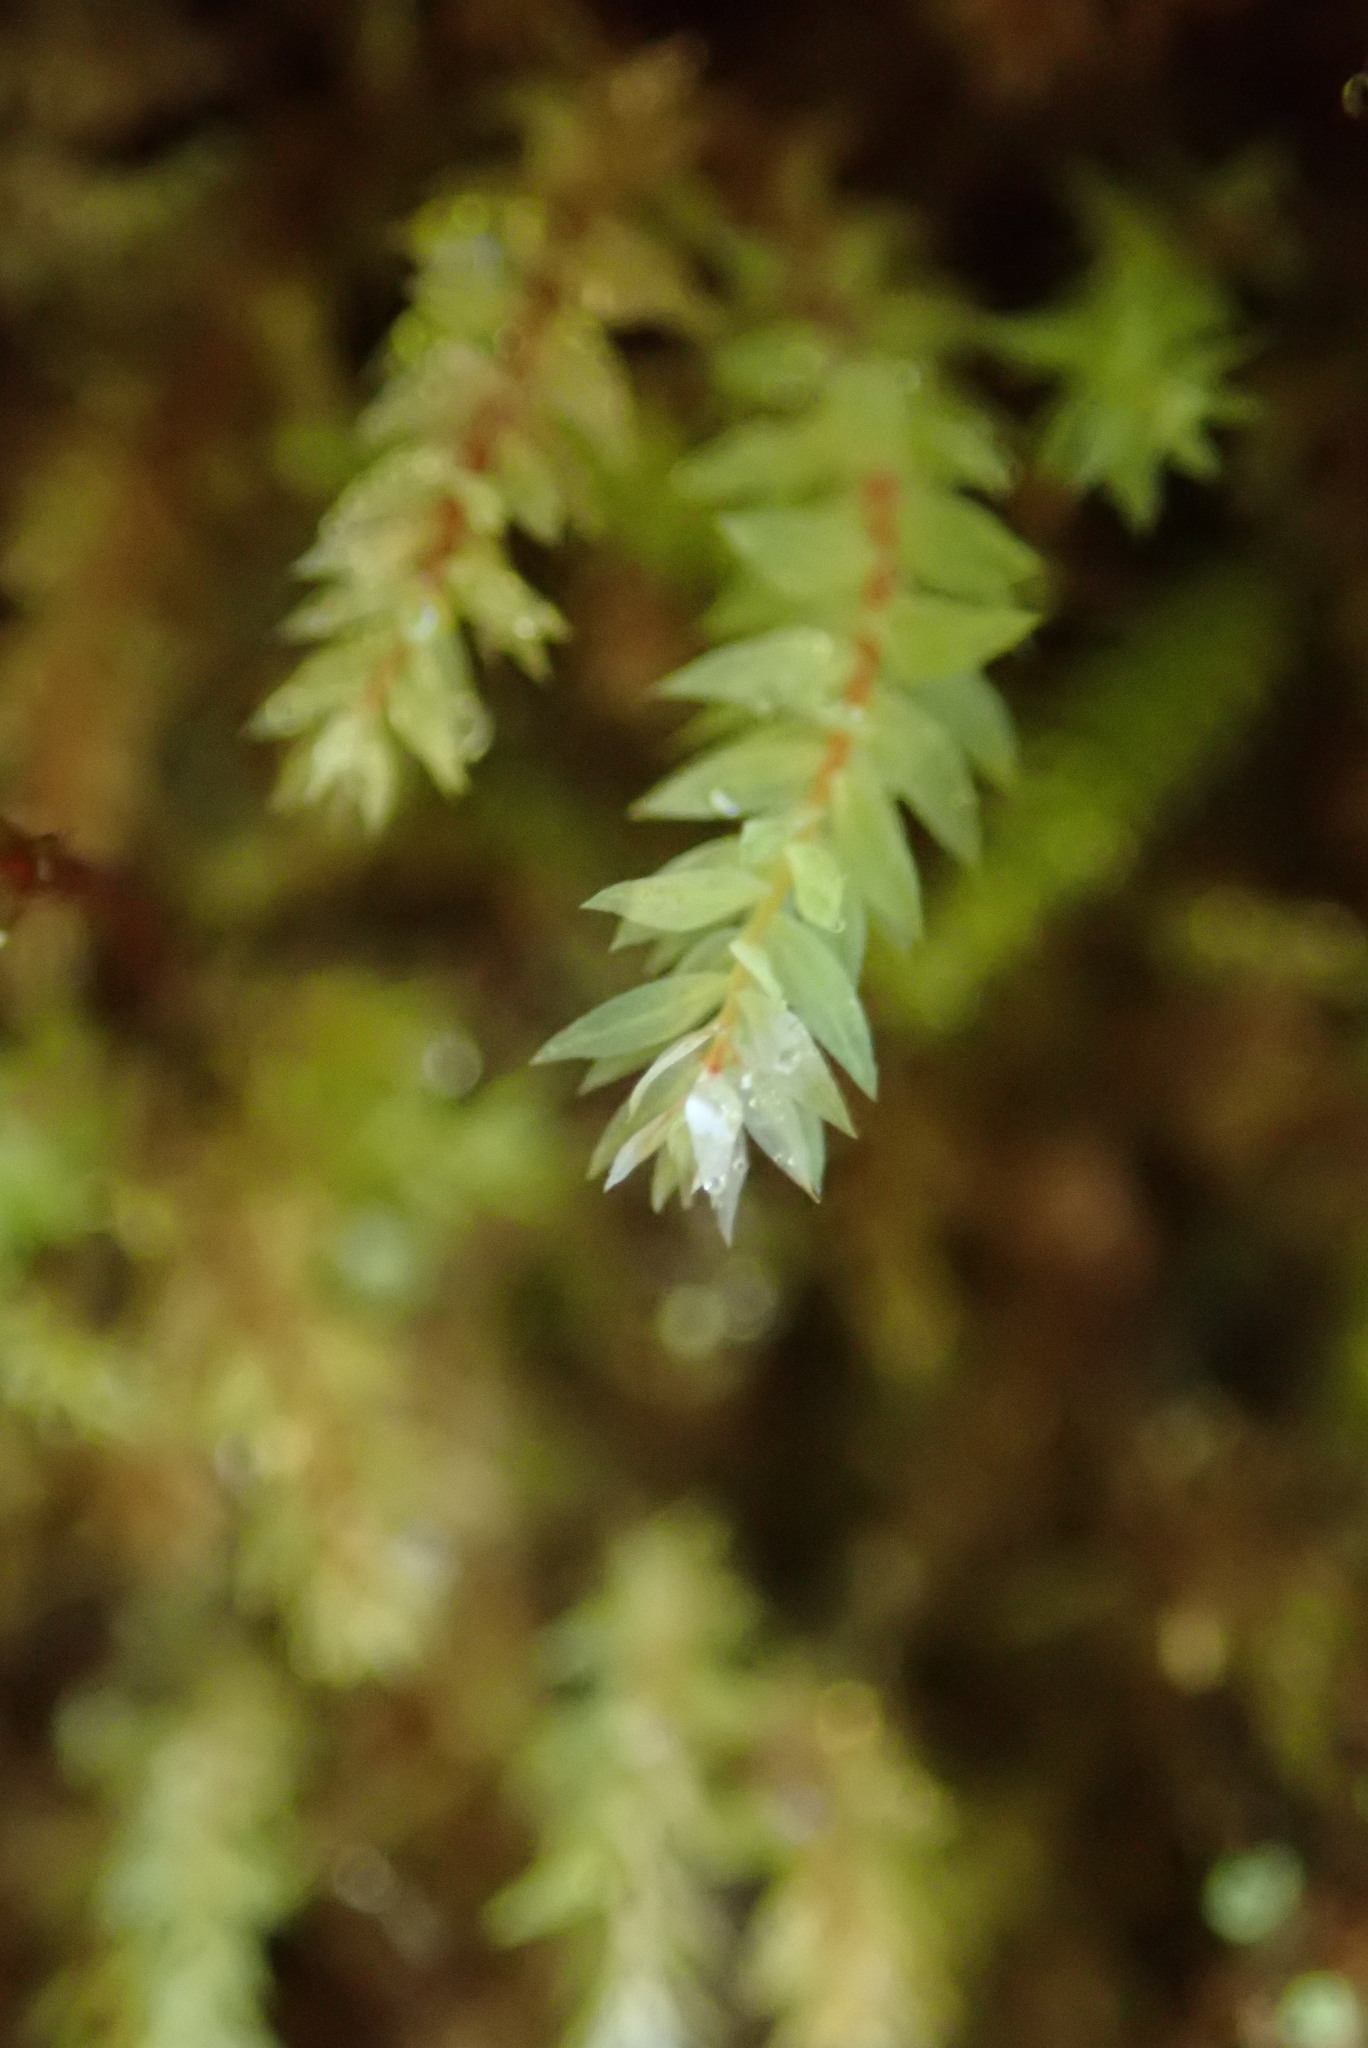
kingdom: Plantae
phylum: Bryophyta
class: Bryopsida
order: Bryales
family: Mniaceae
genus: Pohlia
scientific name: Pohlia cruda
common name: Opal nodding moss
